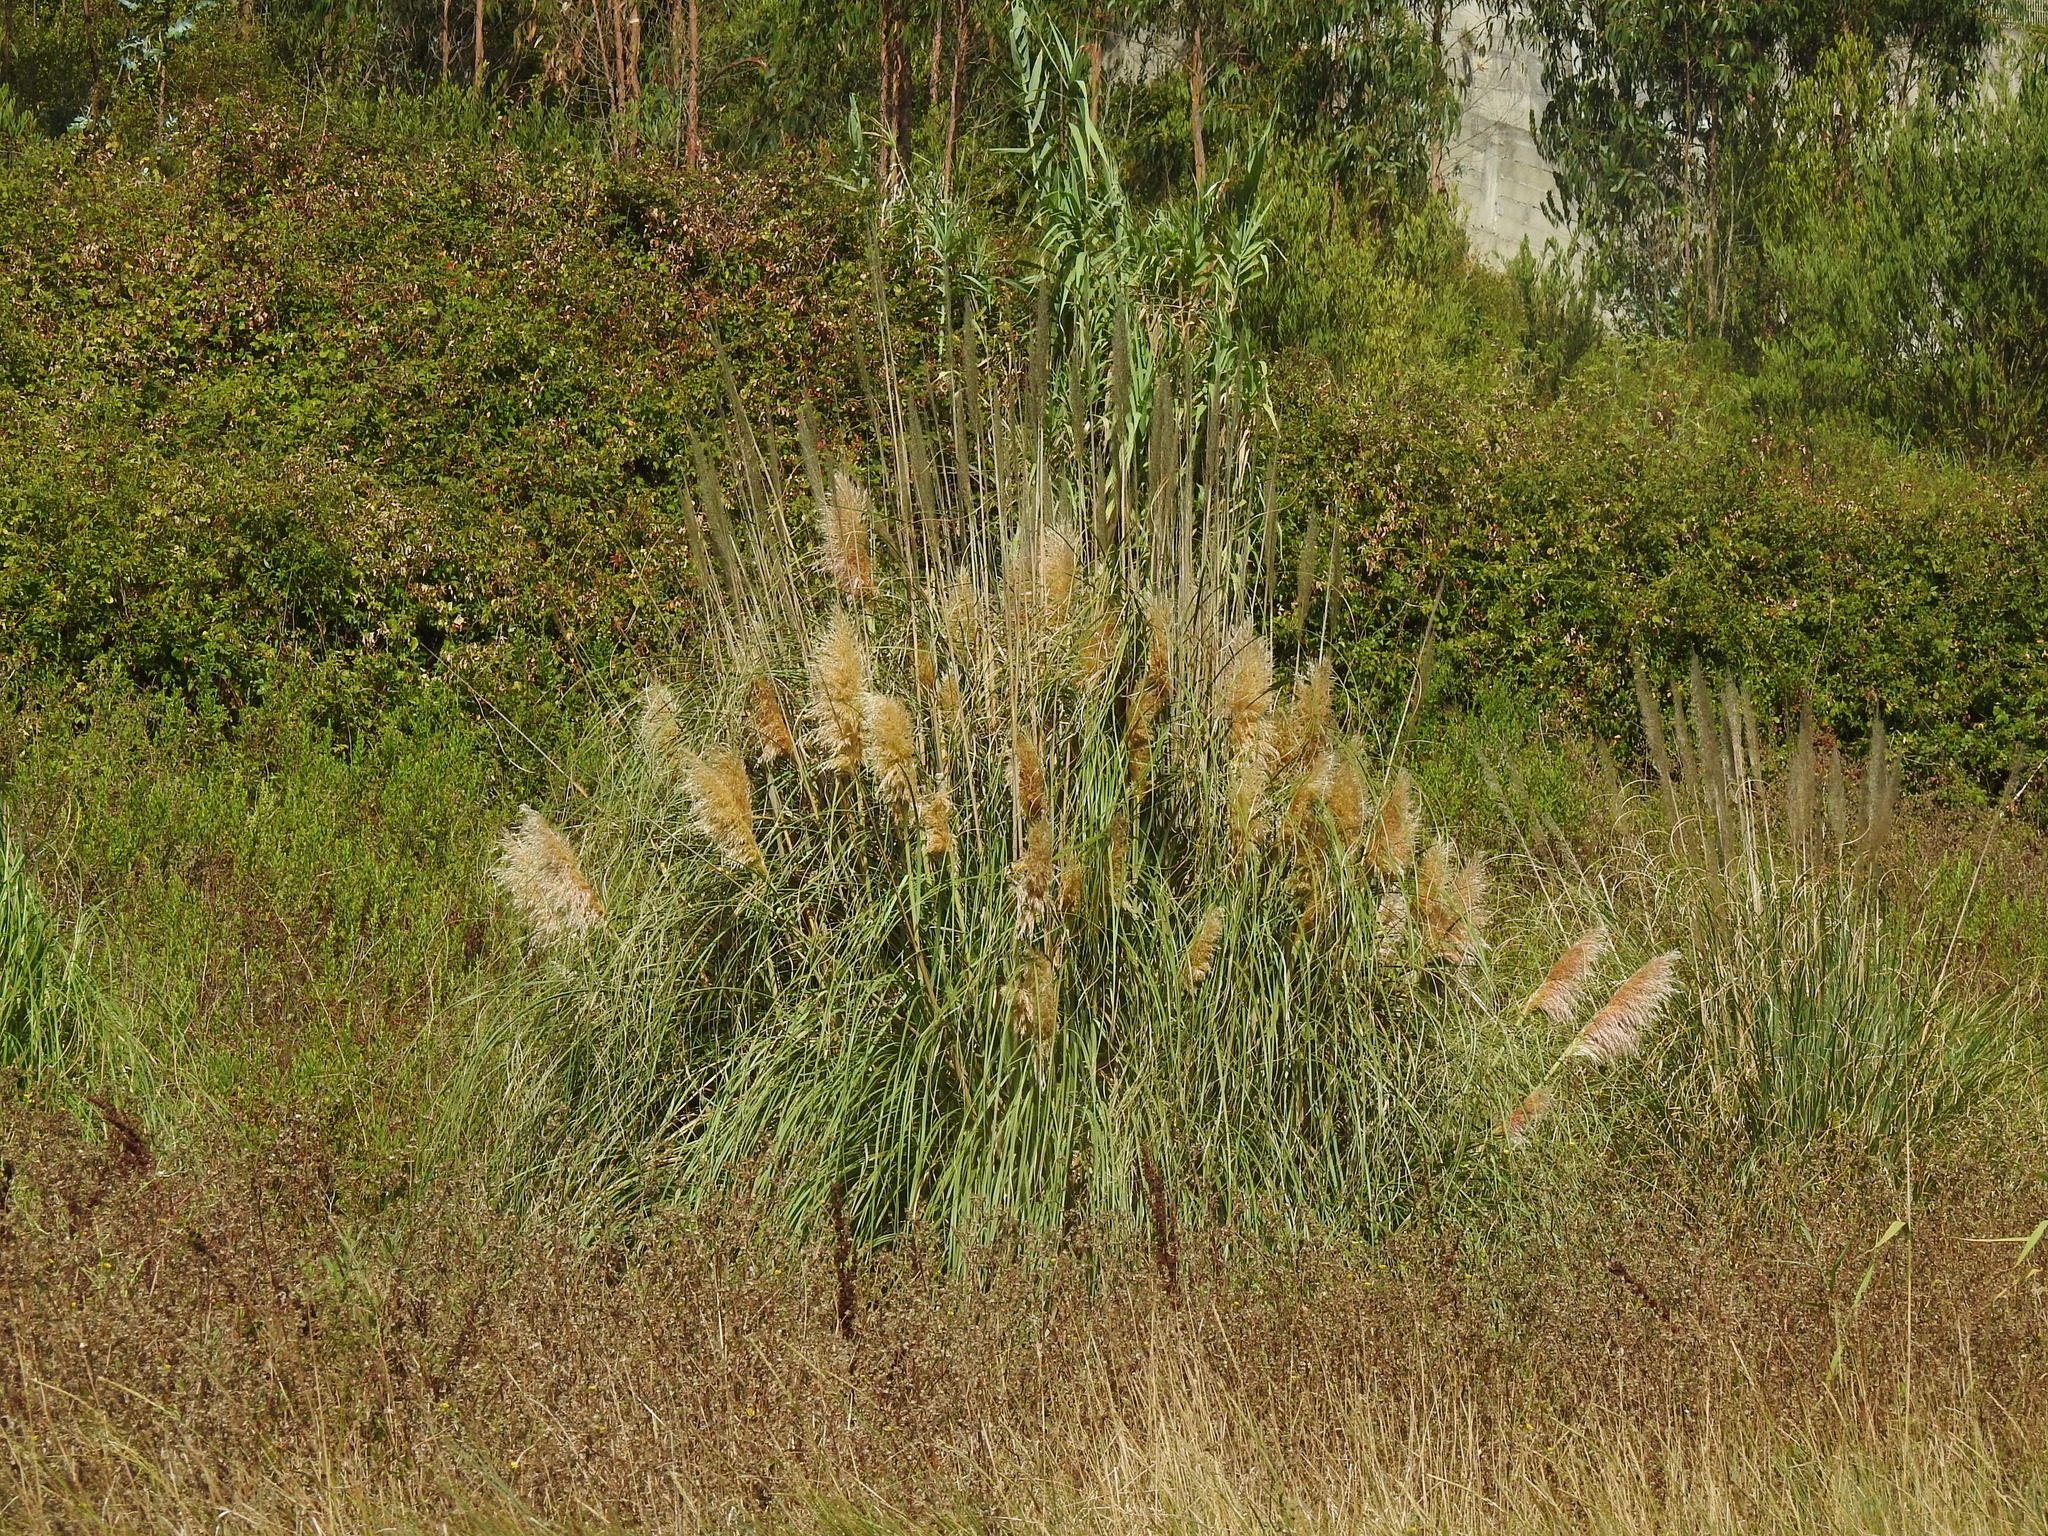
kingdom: Plantae
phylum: Tracheophyta
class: Liliopsida
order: Poales
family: Poaceae
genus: Cortaderia
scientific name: Cortaderia selloana
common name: Uruguayan pampas grass
